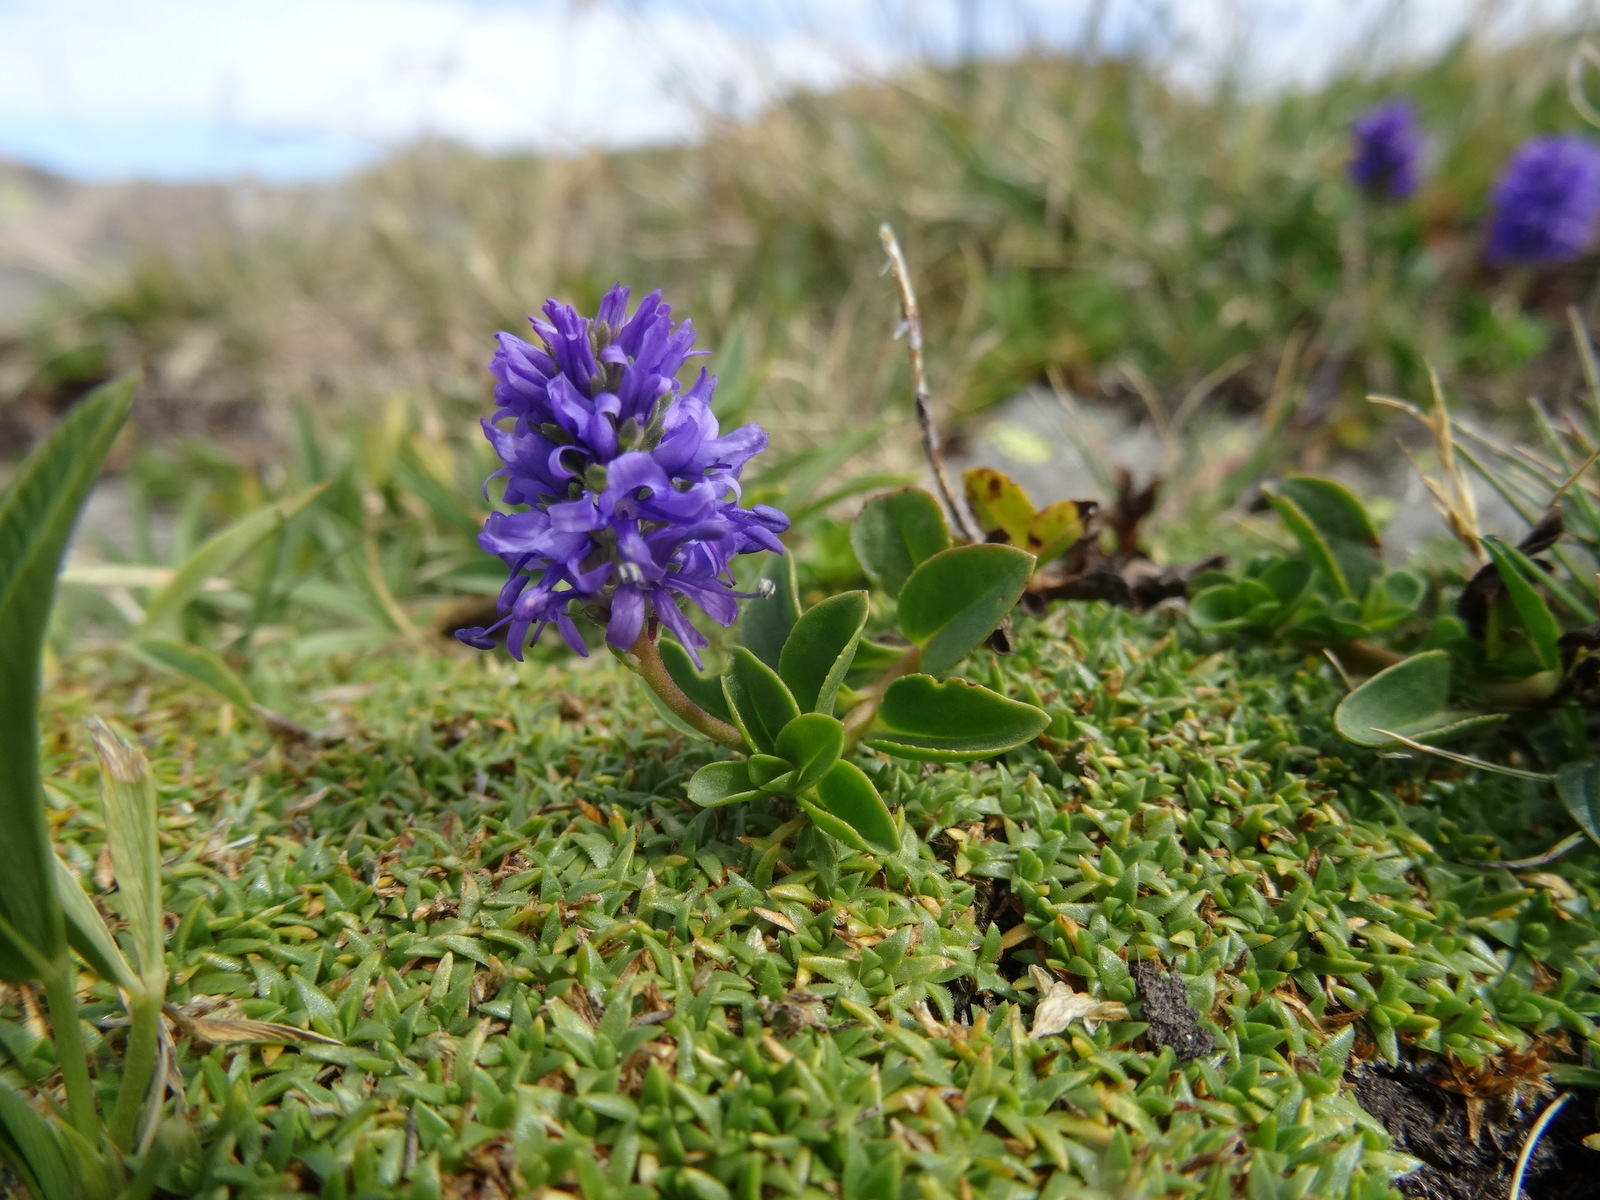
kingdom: Plantae
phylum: Tracheophyta
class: Magnoliopsida
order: Lamiales
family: Plantaginaceae
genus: Veronica
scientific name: Veronica allionii
